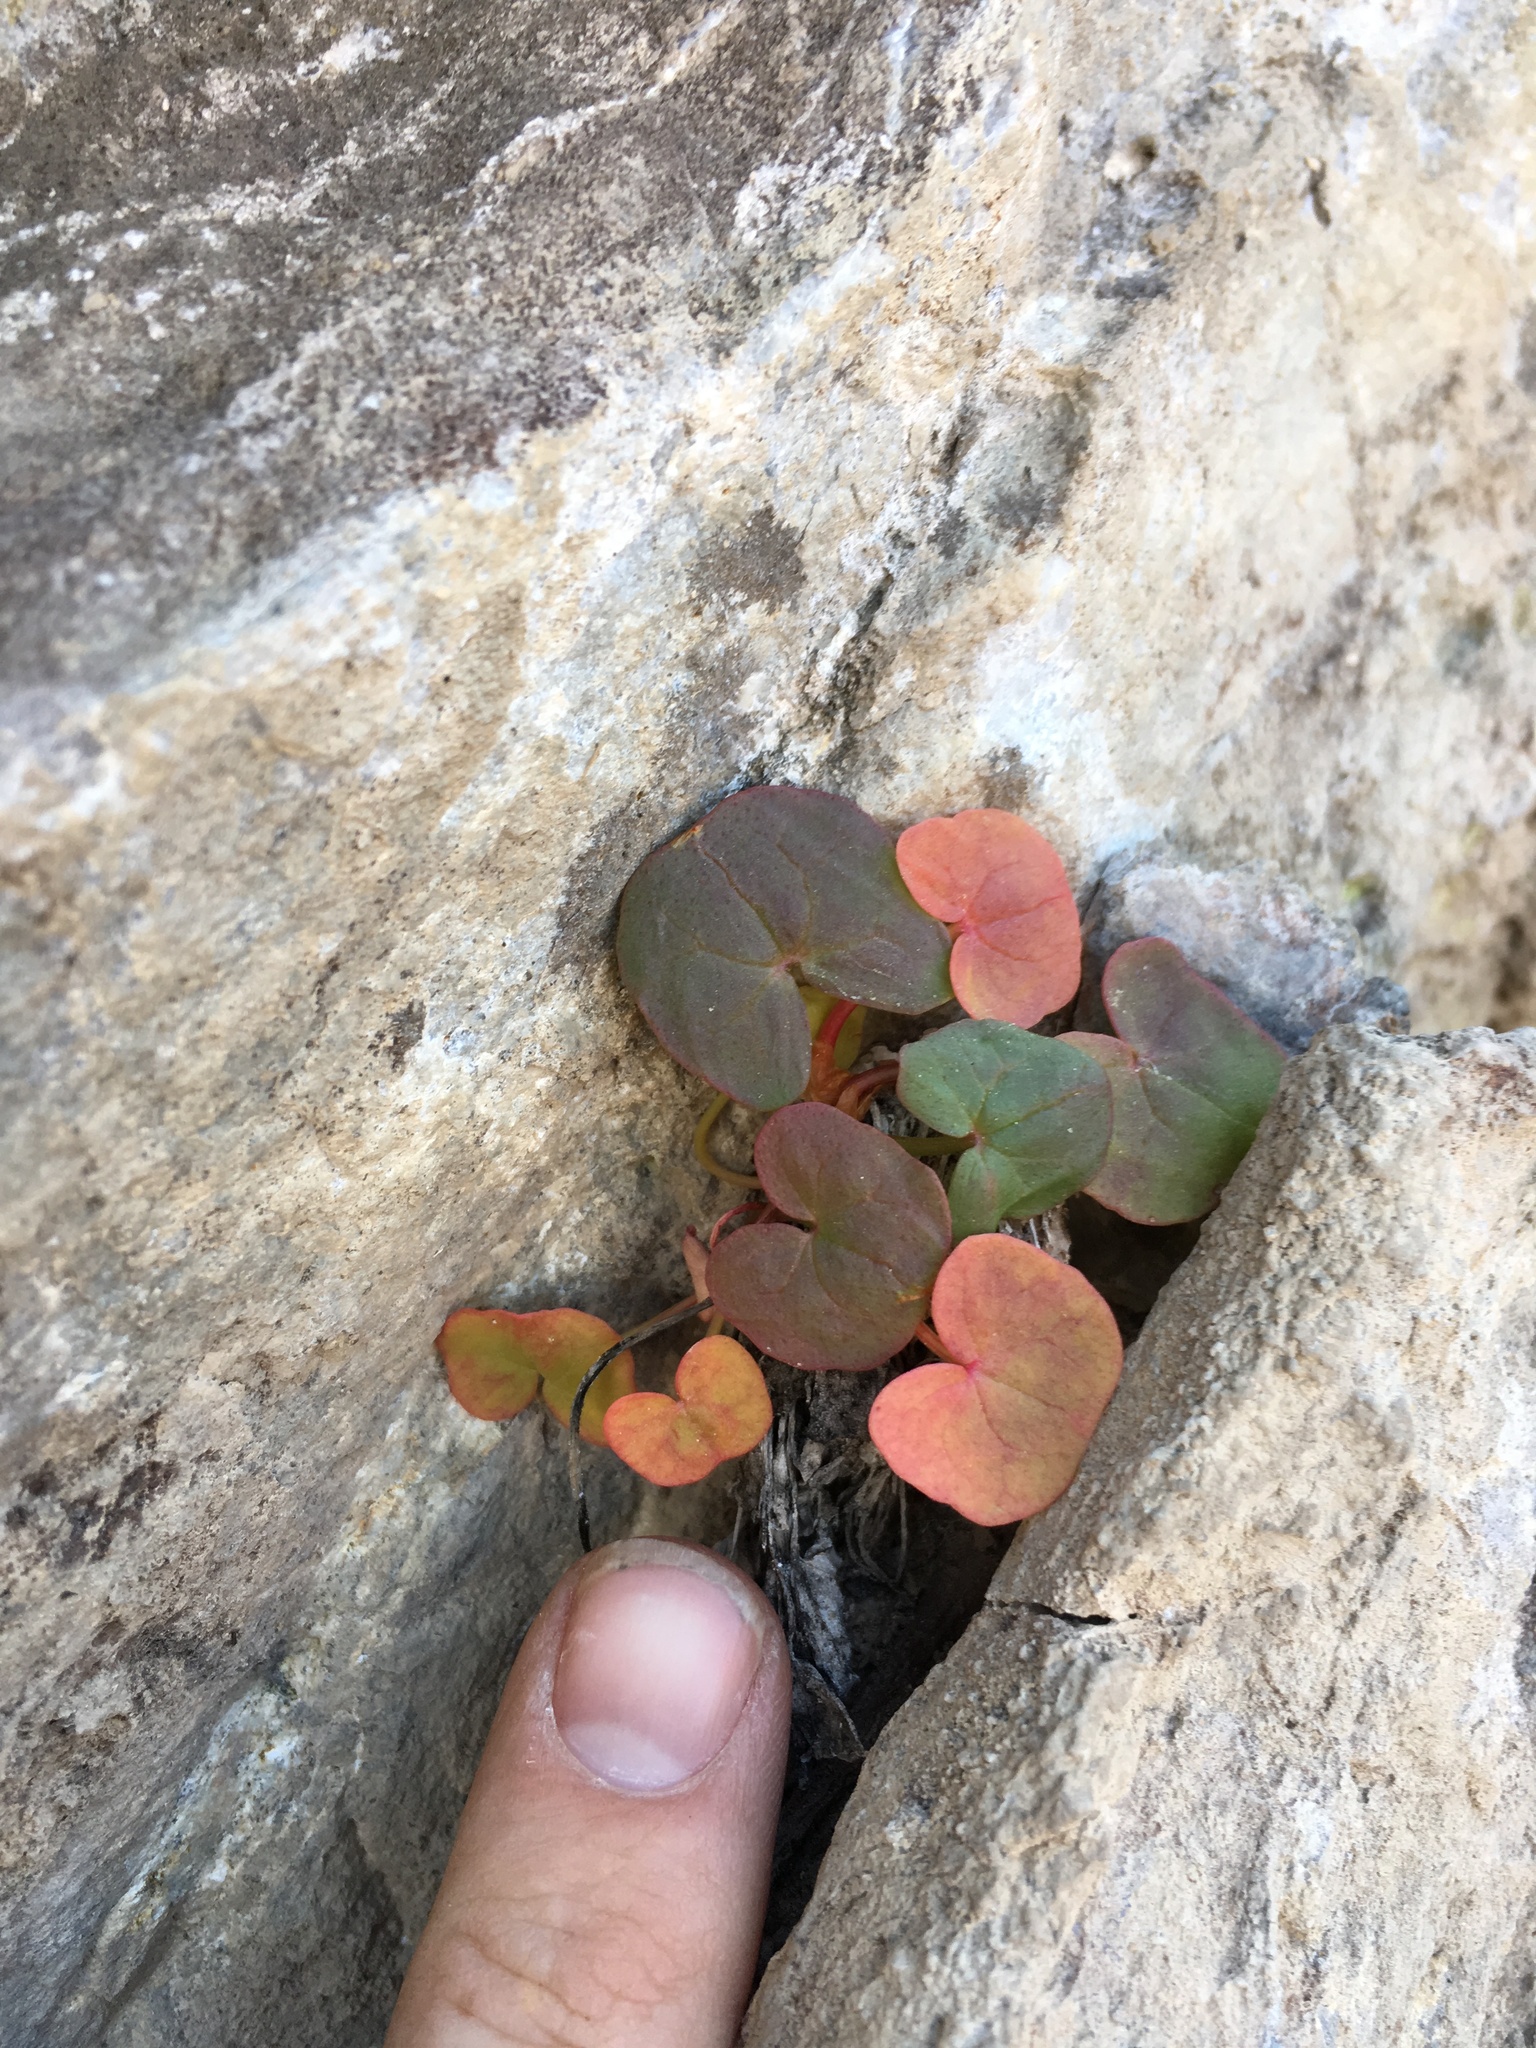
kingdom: Plantae
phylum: Tracheophyta
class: Magnoliopsida
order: Caryophyllales
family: Polygonaceae
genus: Oxyria
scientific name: Oxyria digyna
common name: Alpine mountain-sorrel
